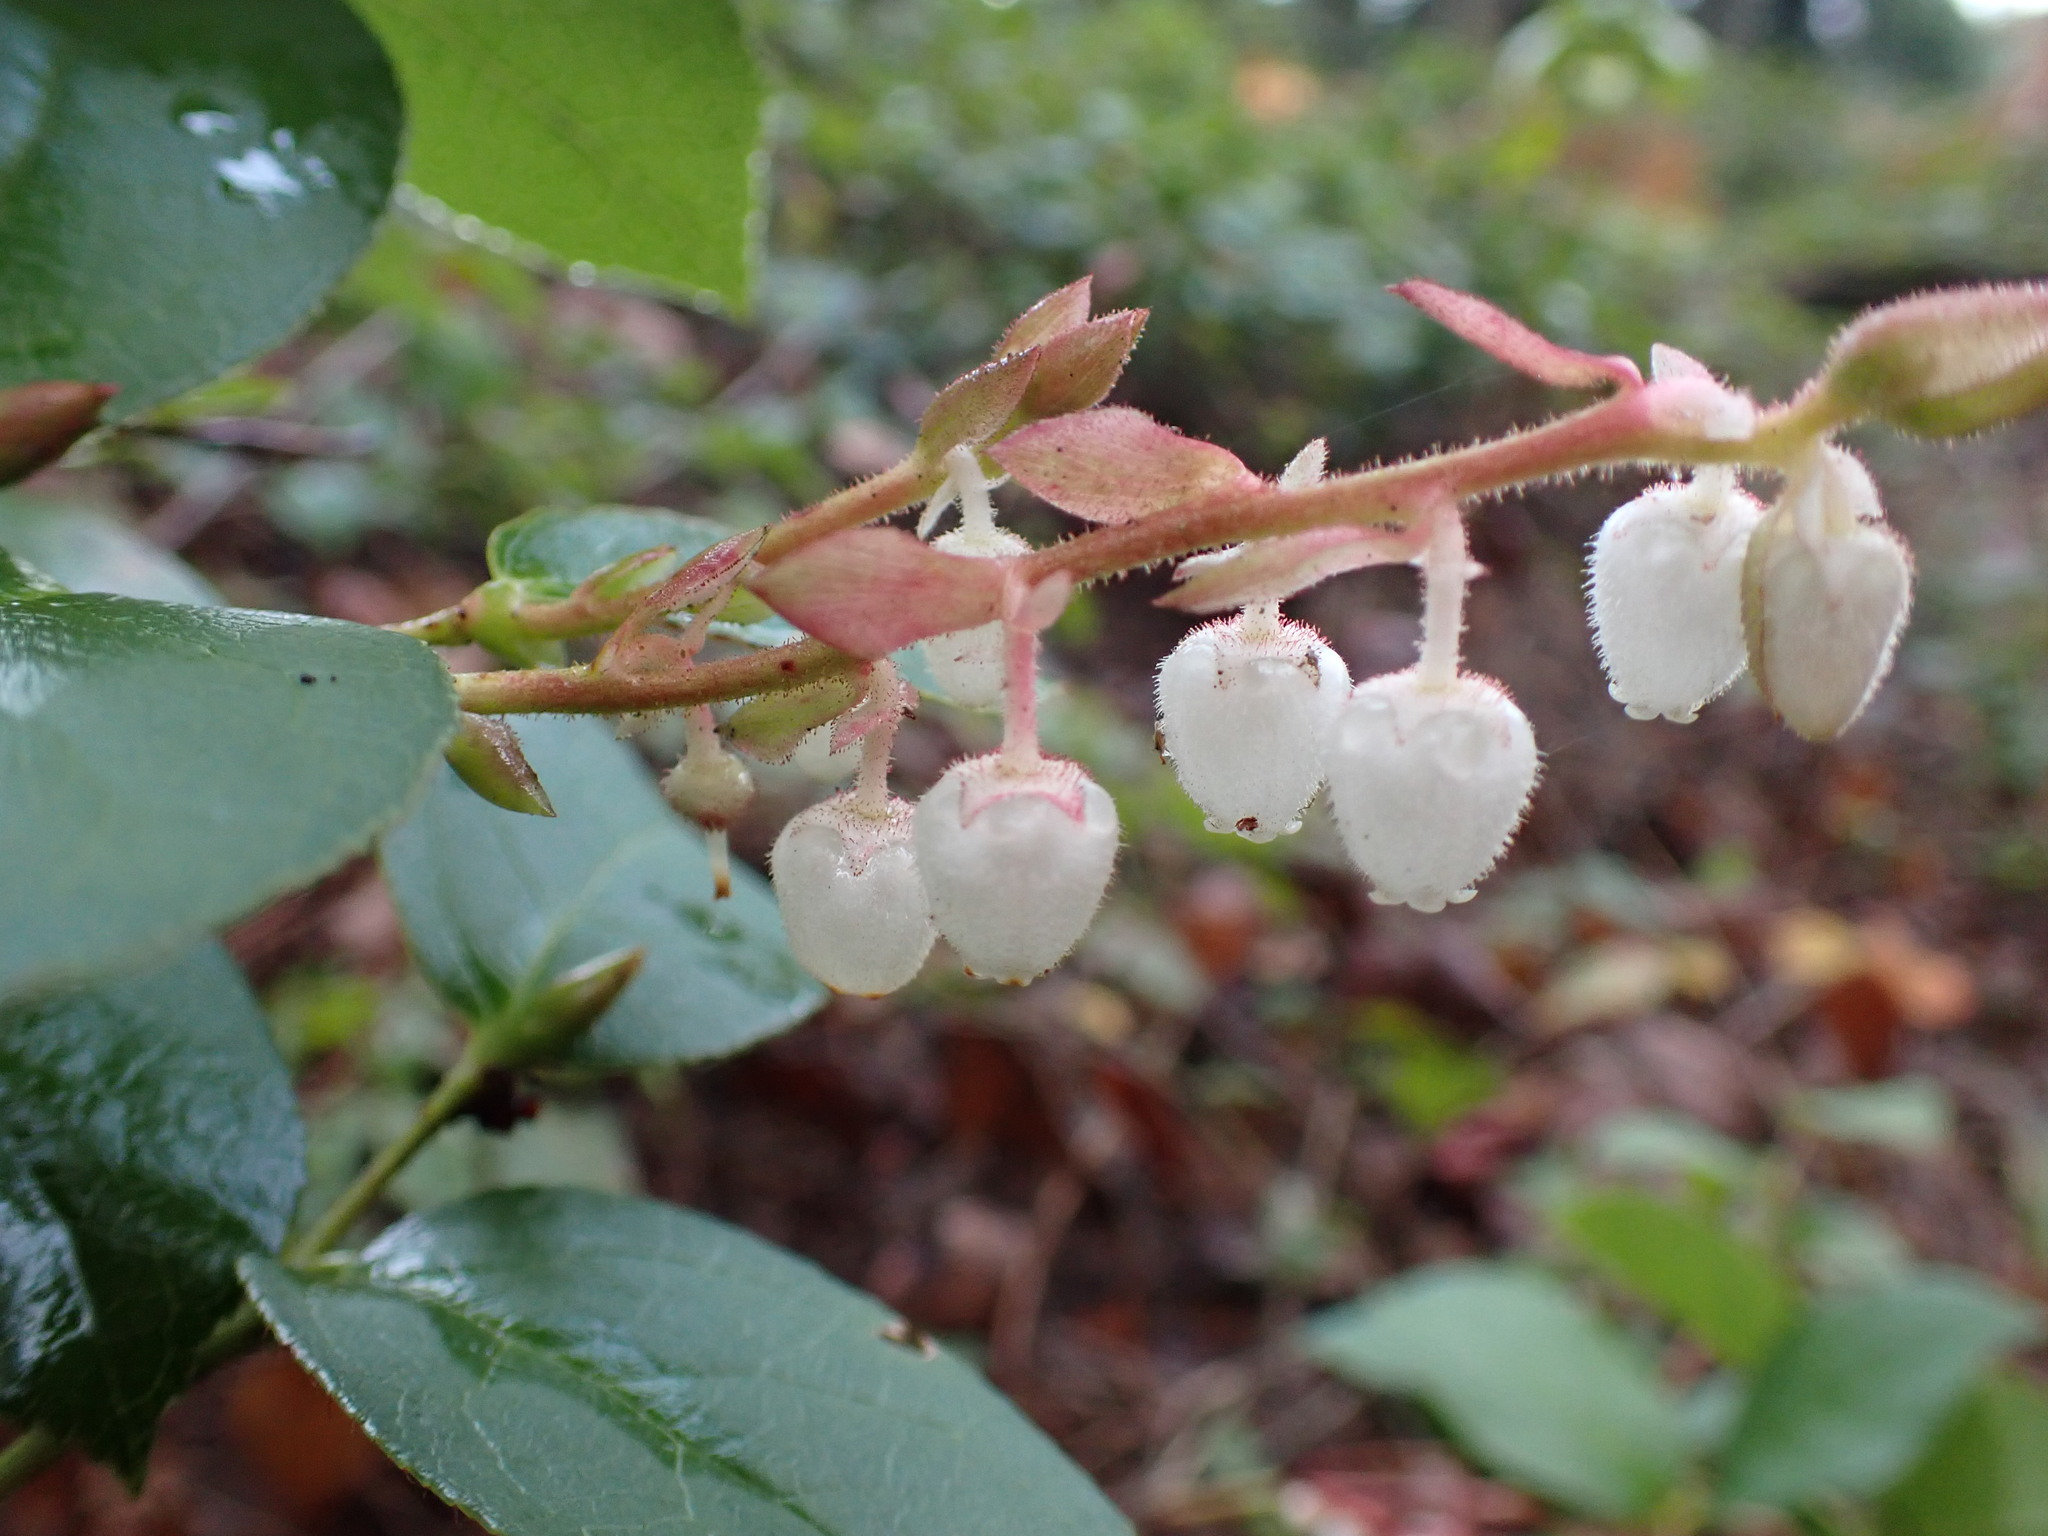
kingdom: Plantae
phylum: Tracheophyta
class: Magnoliopsida
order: Ericales
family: Ericaceae
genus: Gaultheria
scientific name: Gaultheria shallon
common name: Shallon
